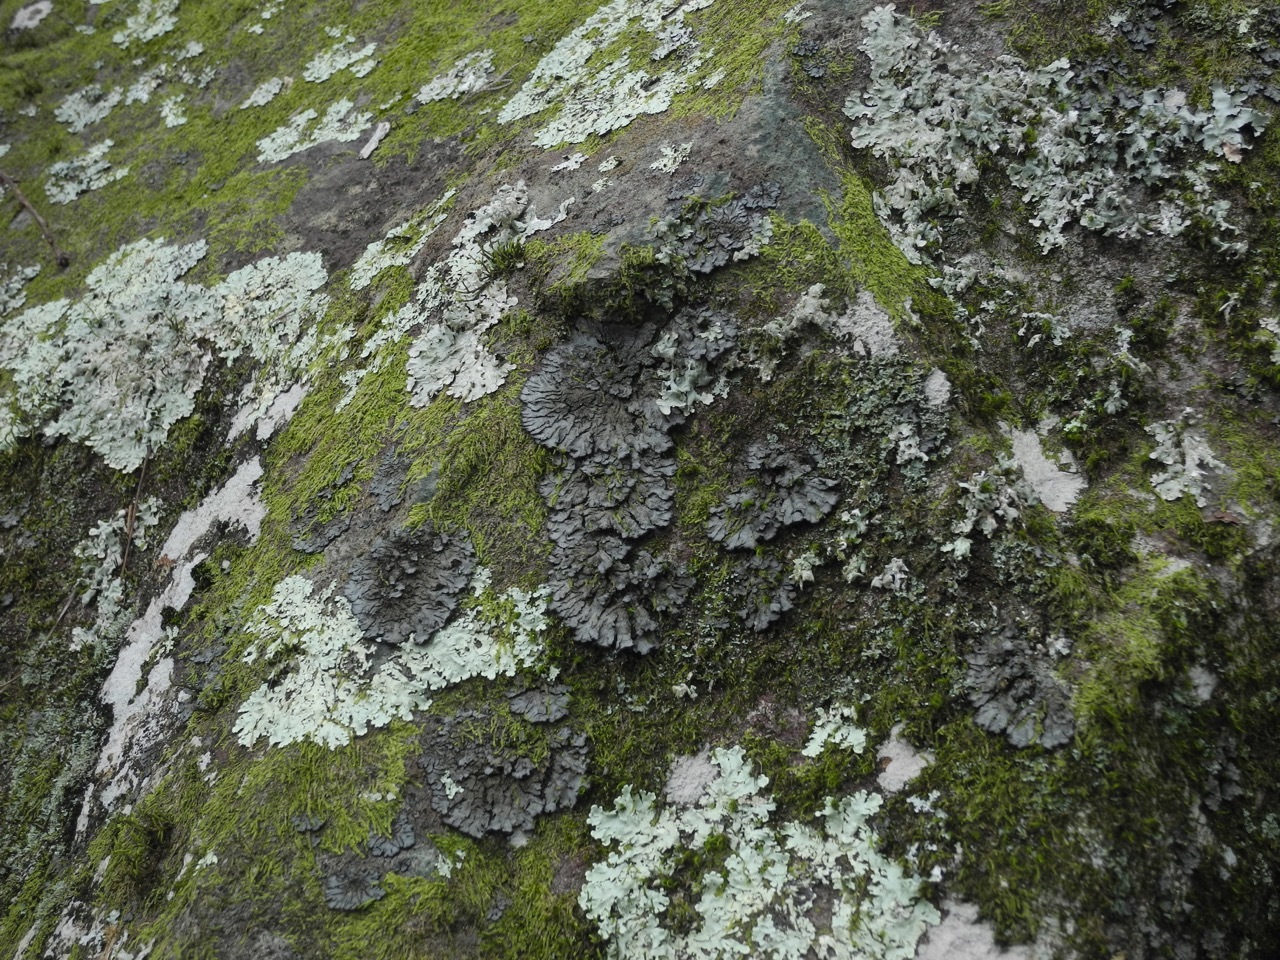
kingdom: Fungi
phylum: Ascomycota
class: Lecanoromycetes
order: Peltigerales
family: Coccocarpiaceae
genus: Coccocarpia
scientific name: Coccocarpia palmicola
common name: Salted shell lichen
